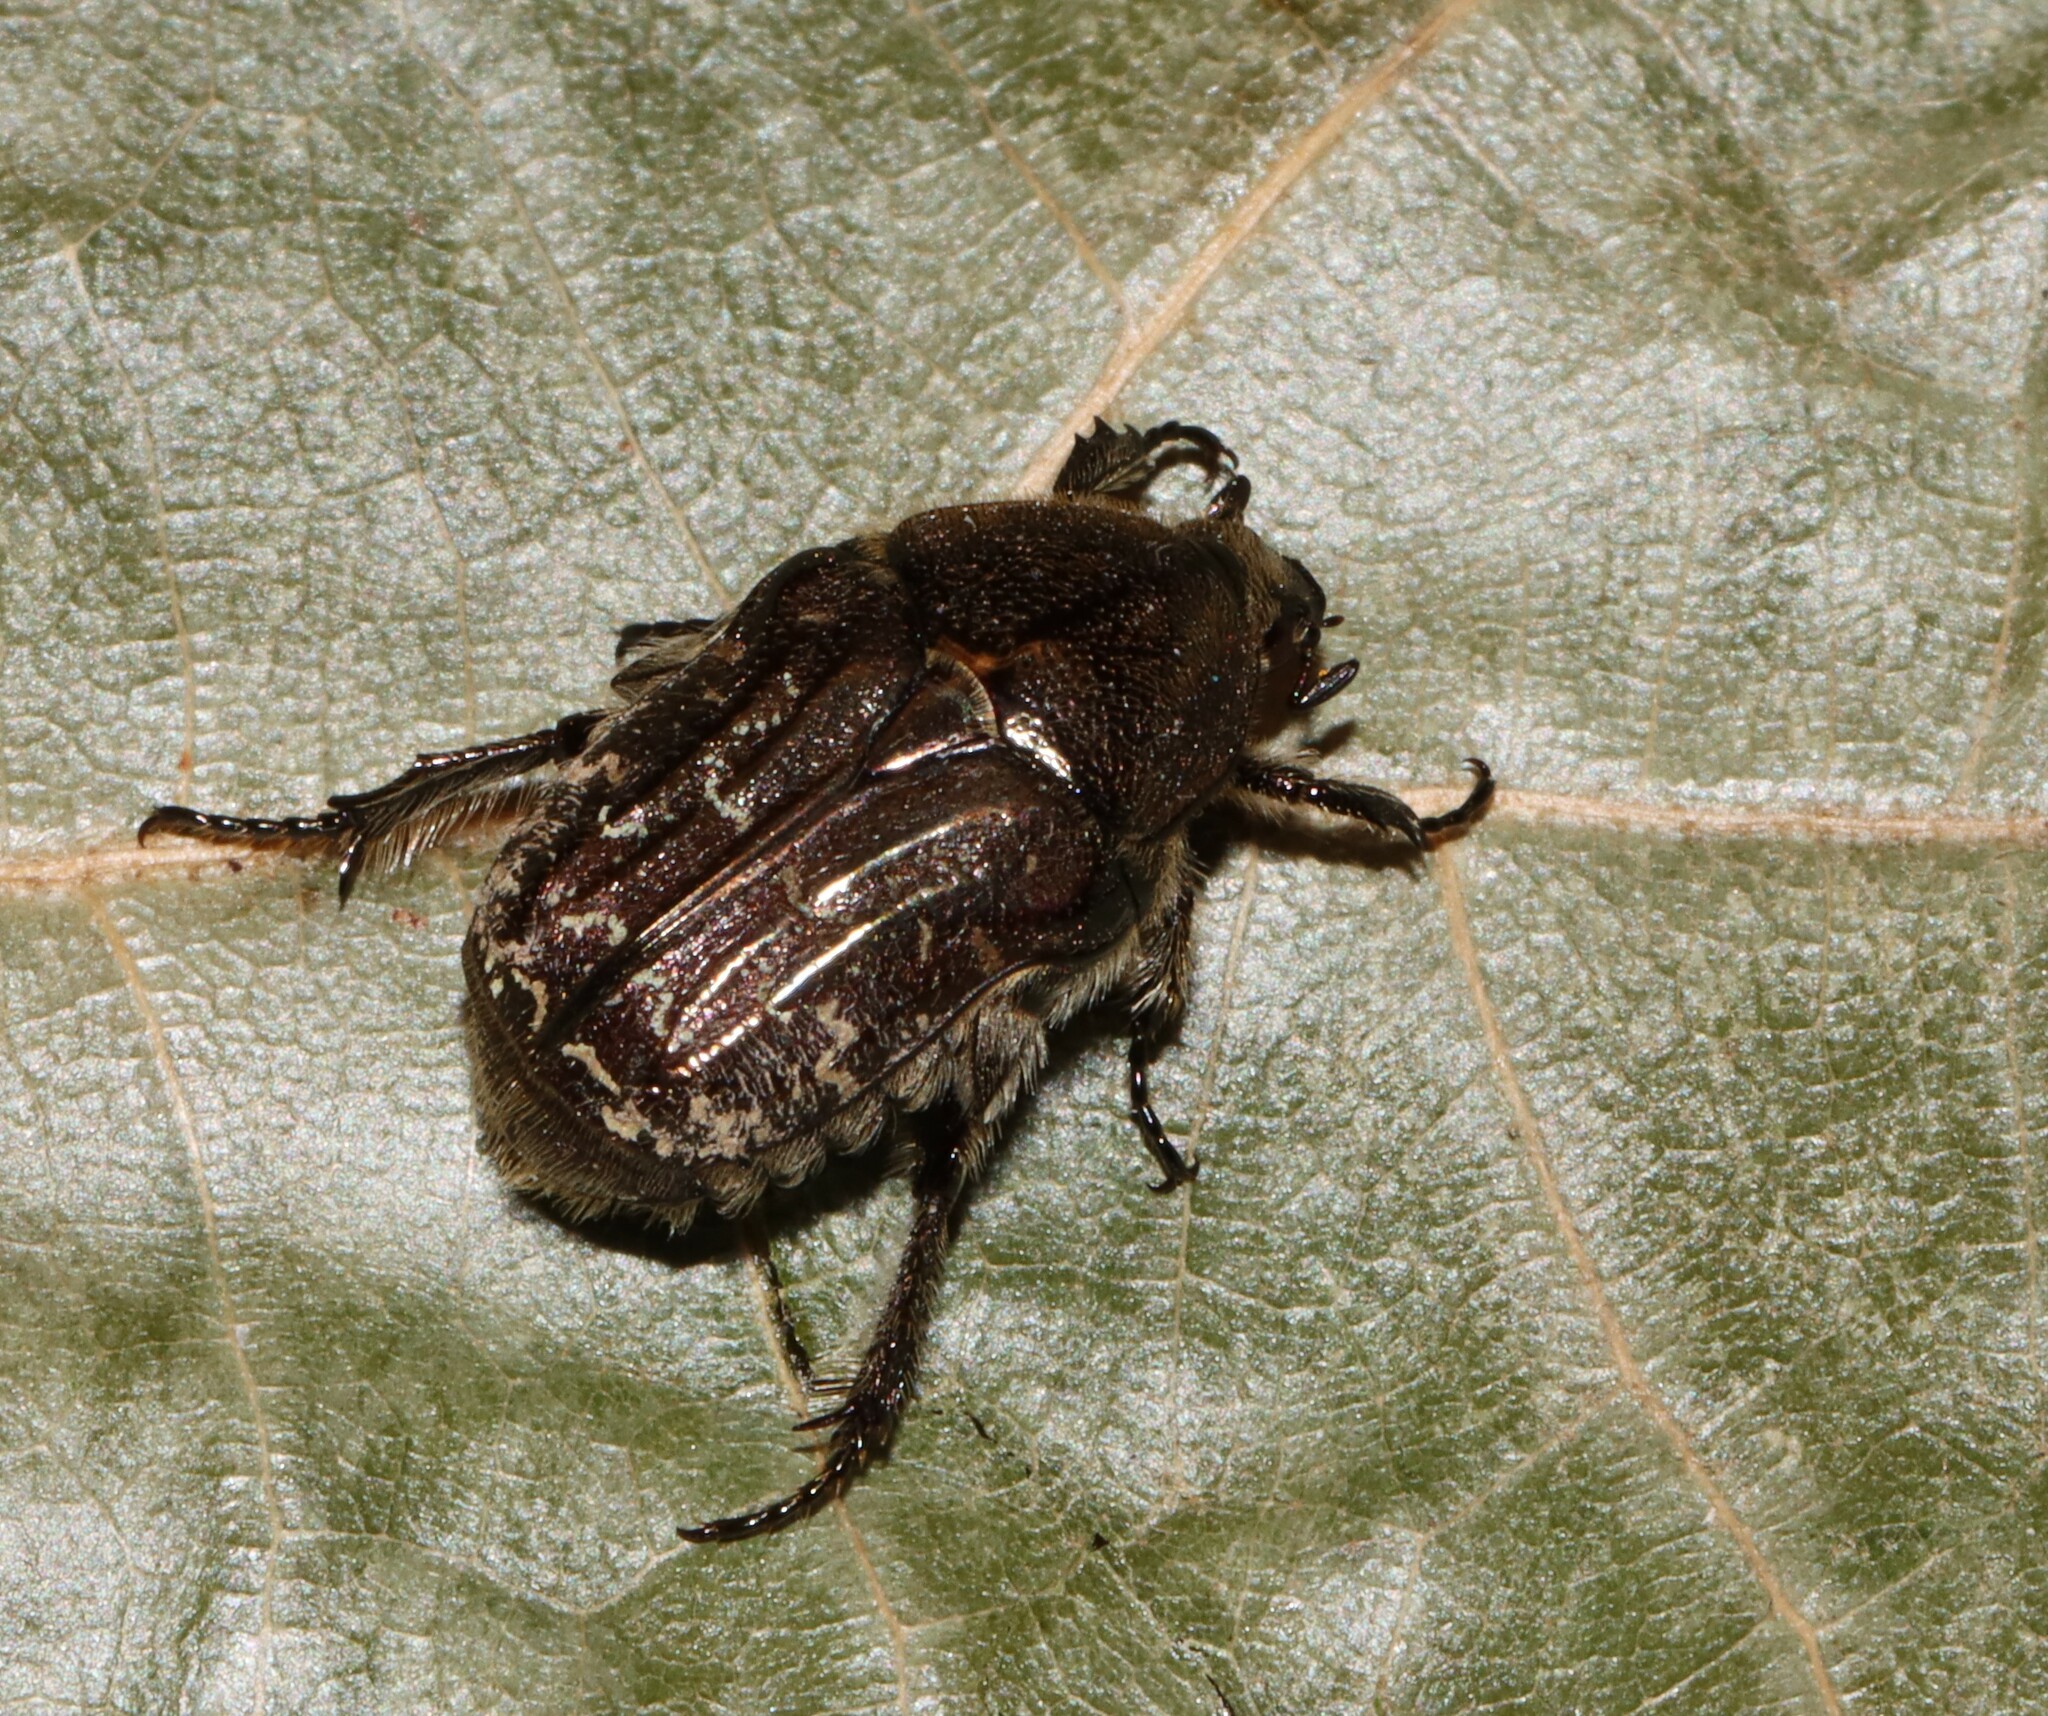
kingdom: Animalia
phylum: Arthropoda
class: Insecta
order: Coleoptera
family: Scarabaeidae
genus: Euphoria
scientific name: Euphoria sepulcralis
